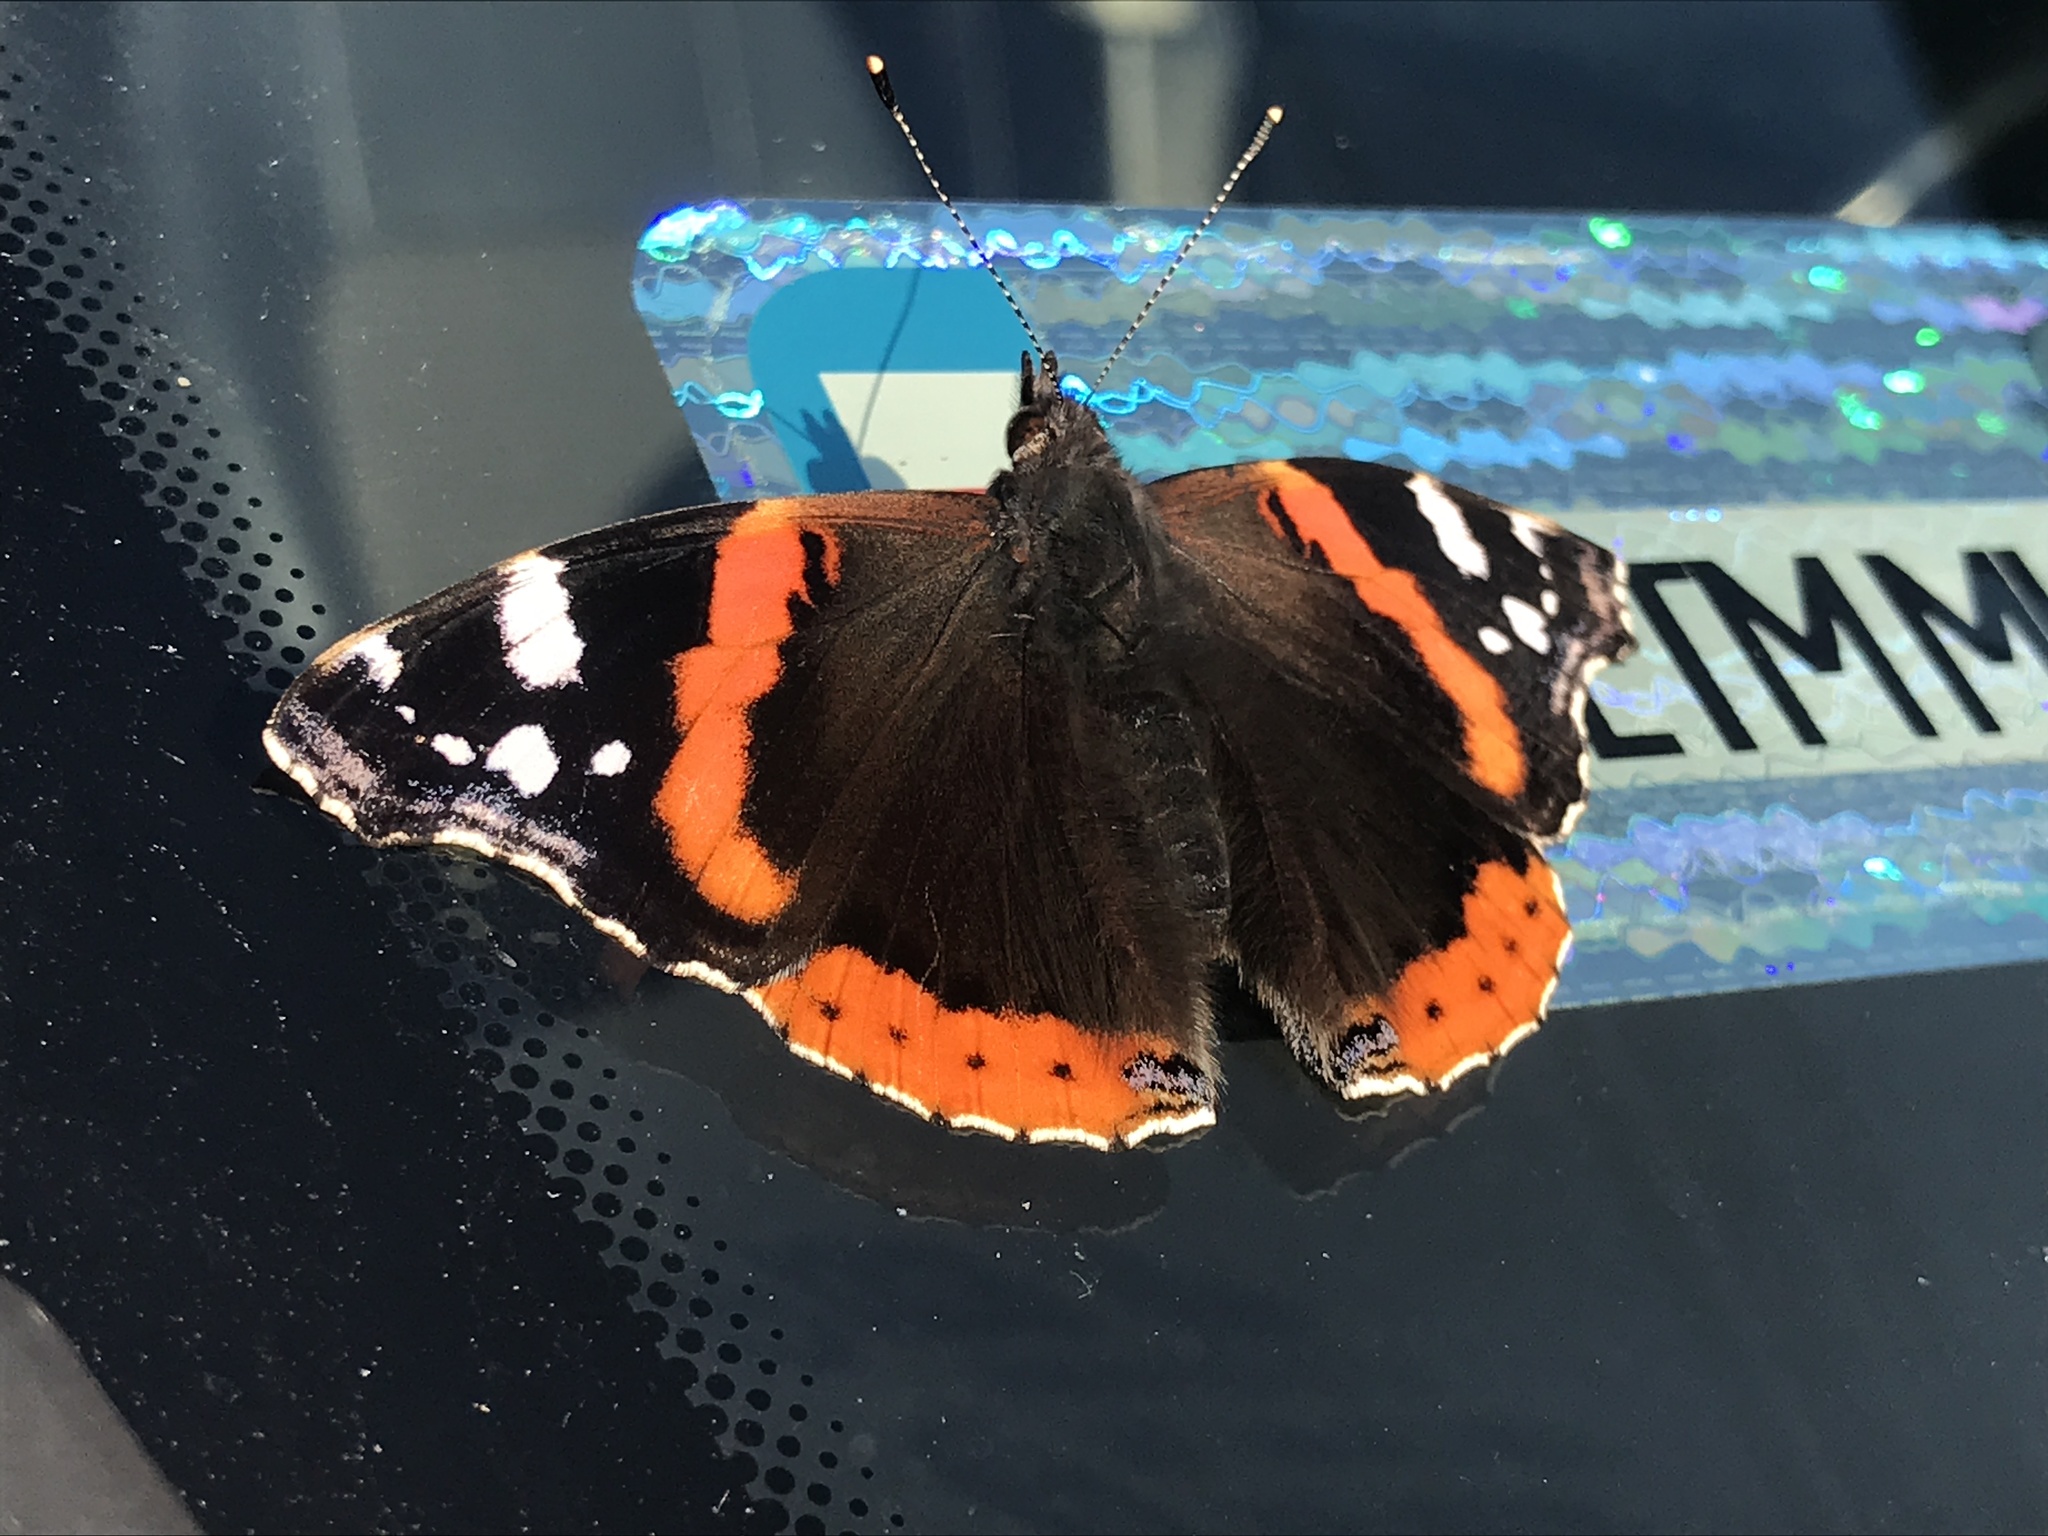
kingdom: Animalia
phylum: Arthropoda
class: Insecta
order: Lepidoptera
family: Nymphalidae
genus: Vanessa
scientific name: Vanessa atalanta
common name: Red admiral
